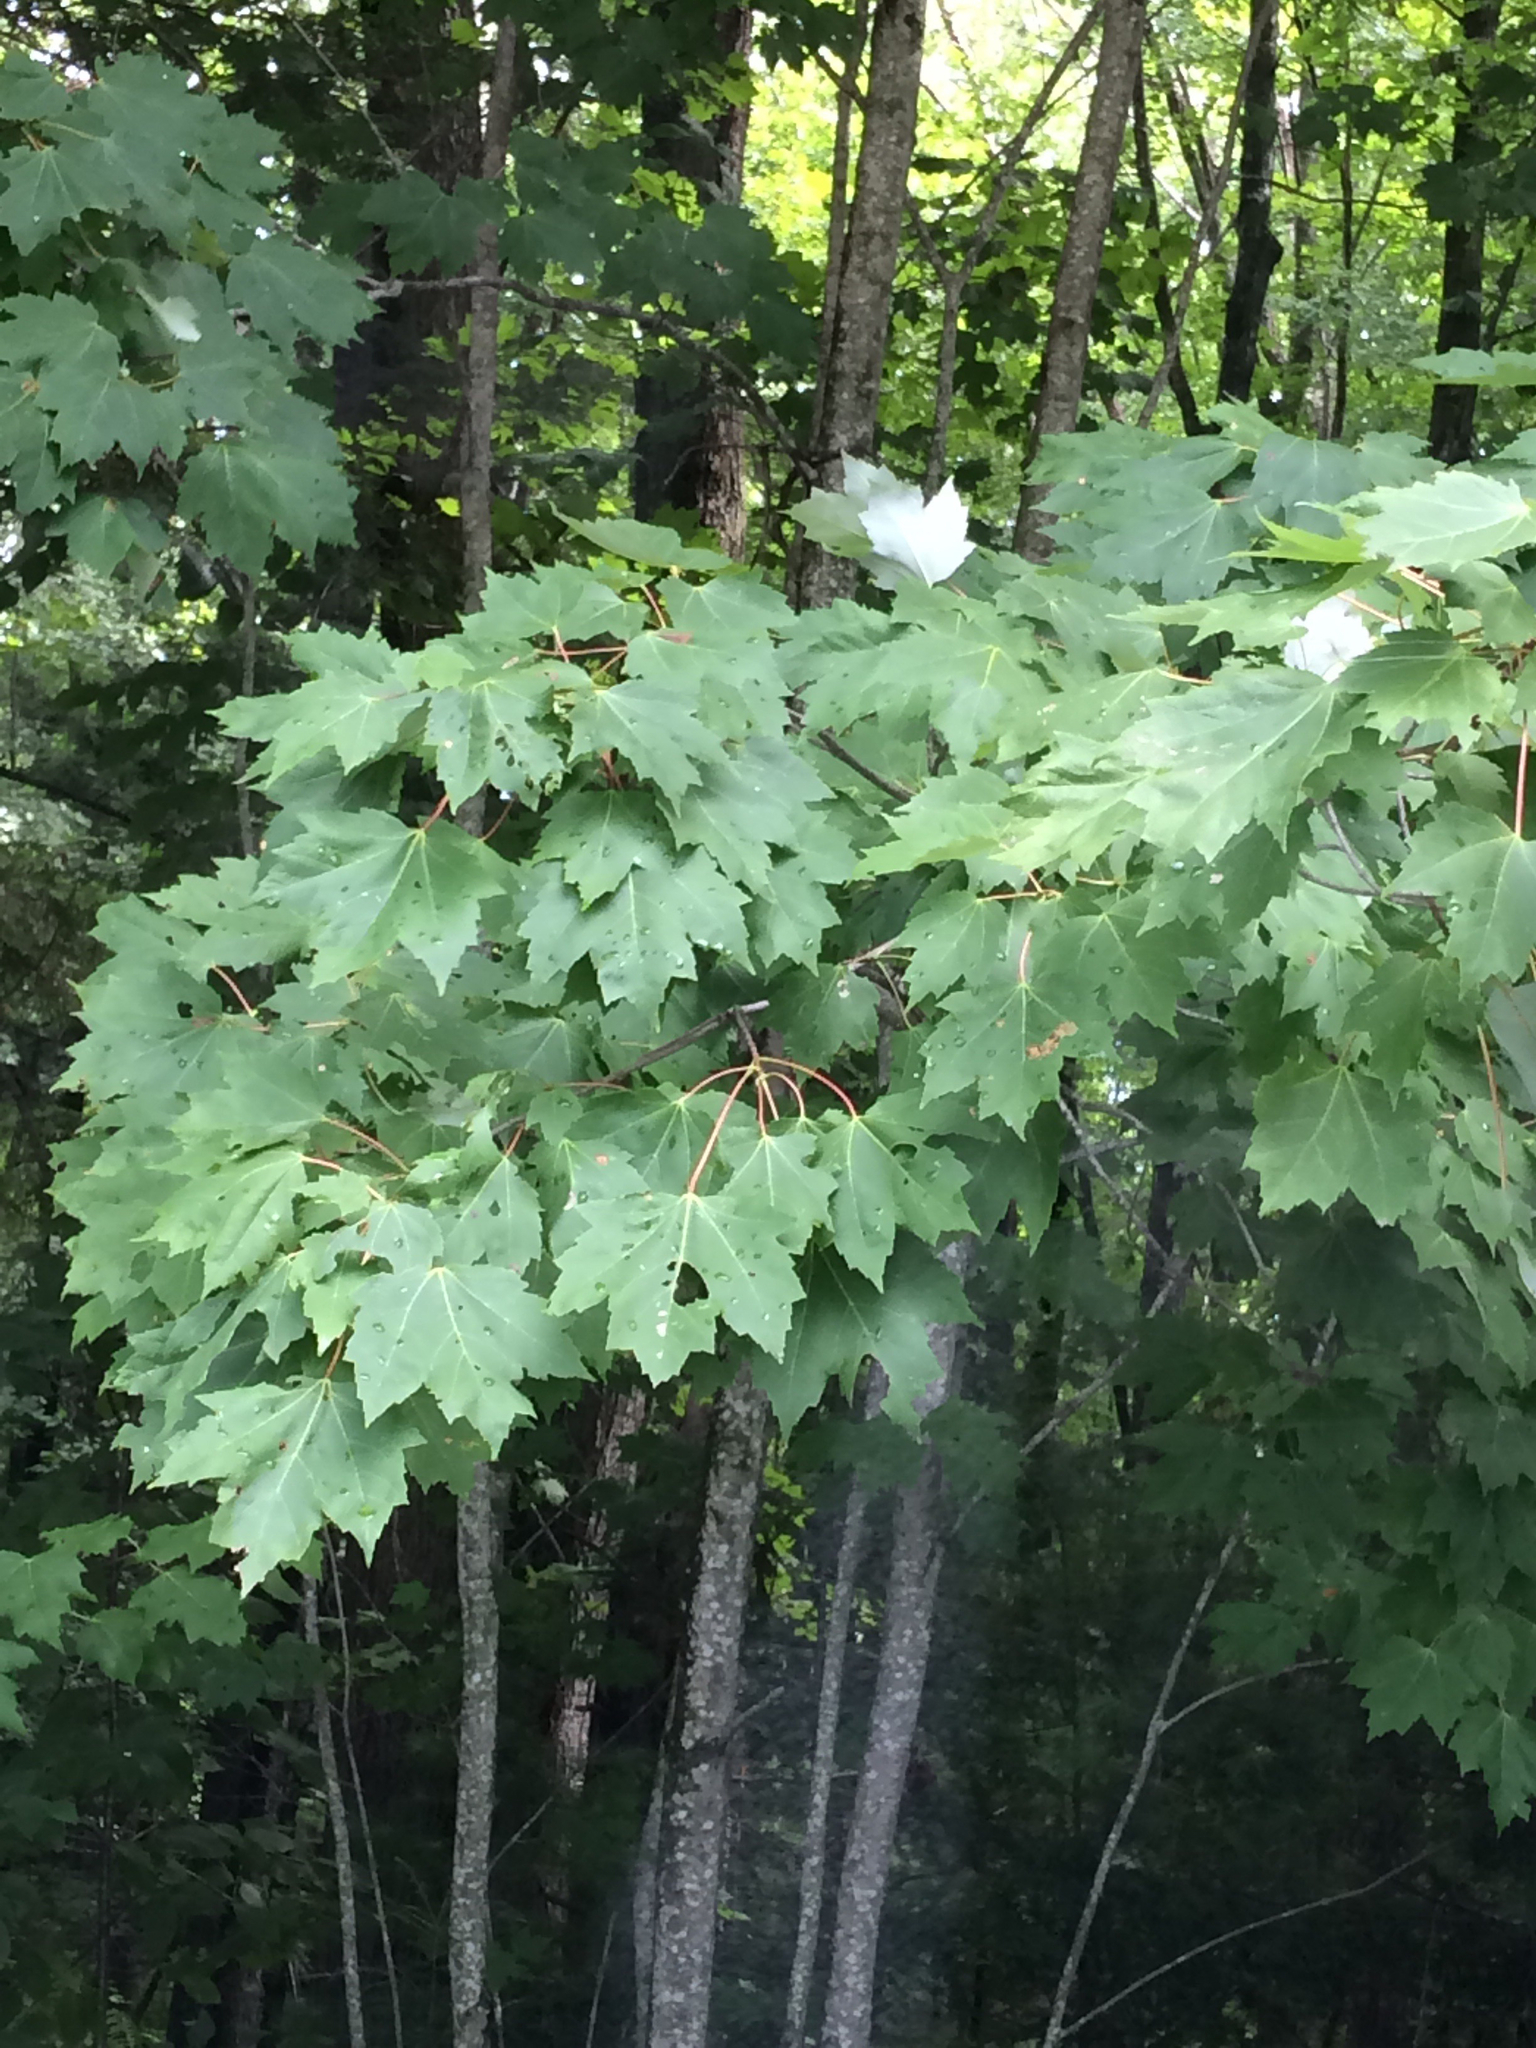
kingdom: Plantae
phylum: Tracheophyta
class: Magnoliopsida
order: Sapindales
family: Sapindaceae
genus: Acer
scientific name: Acer rubrum
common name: Red maple
